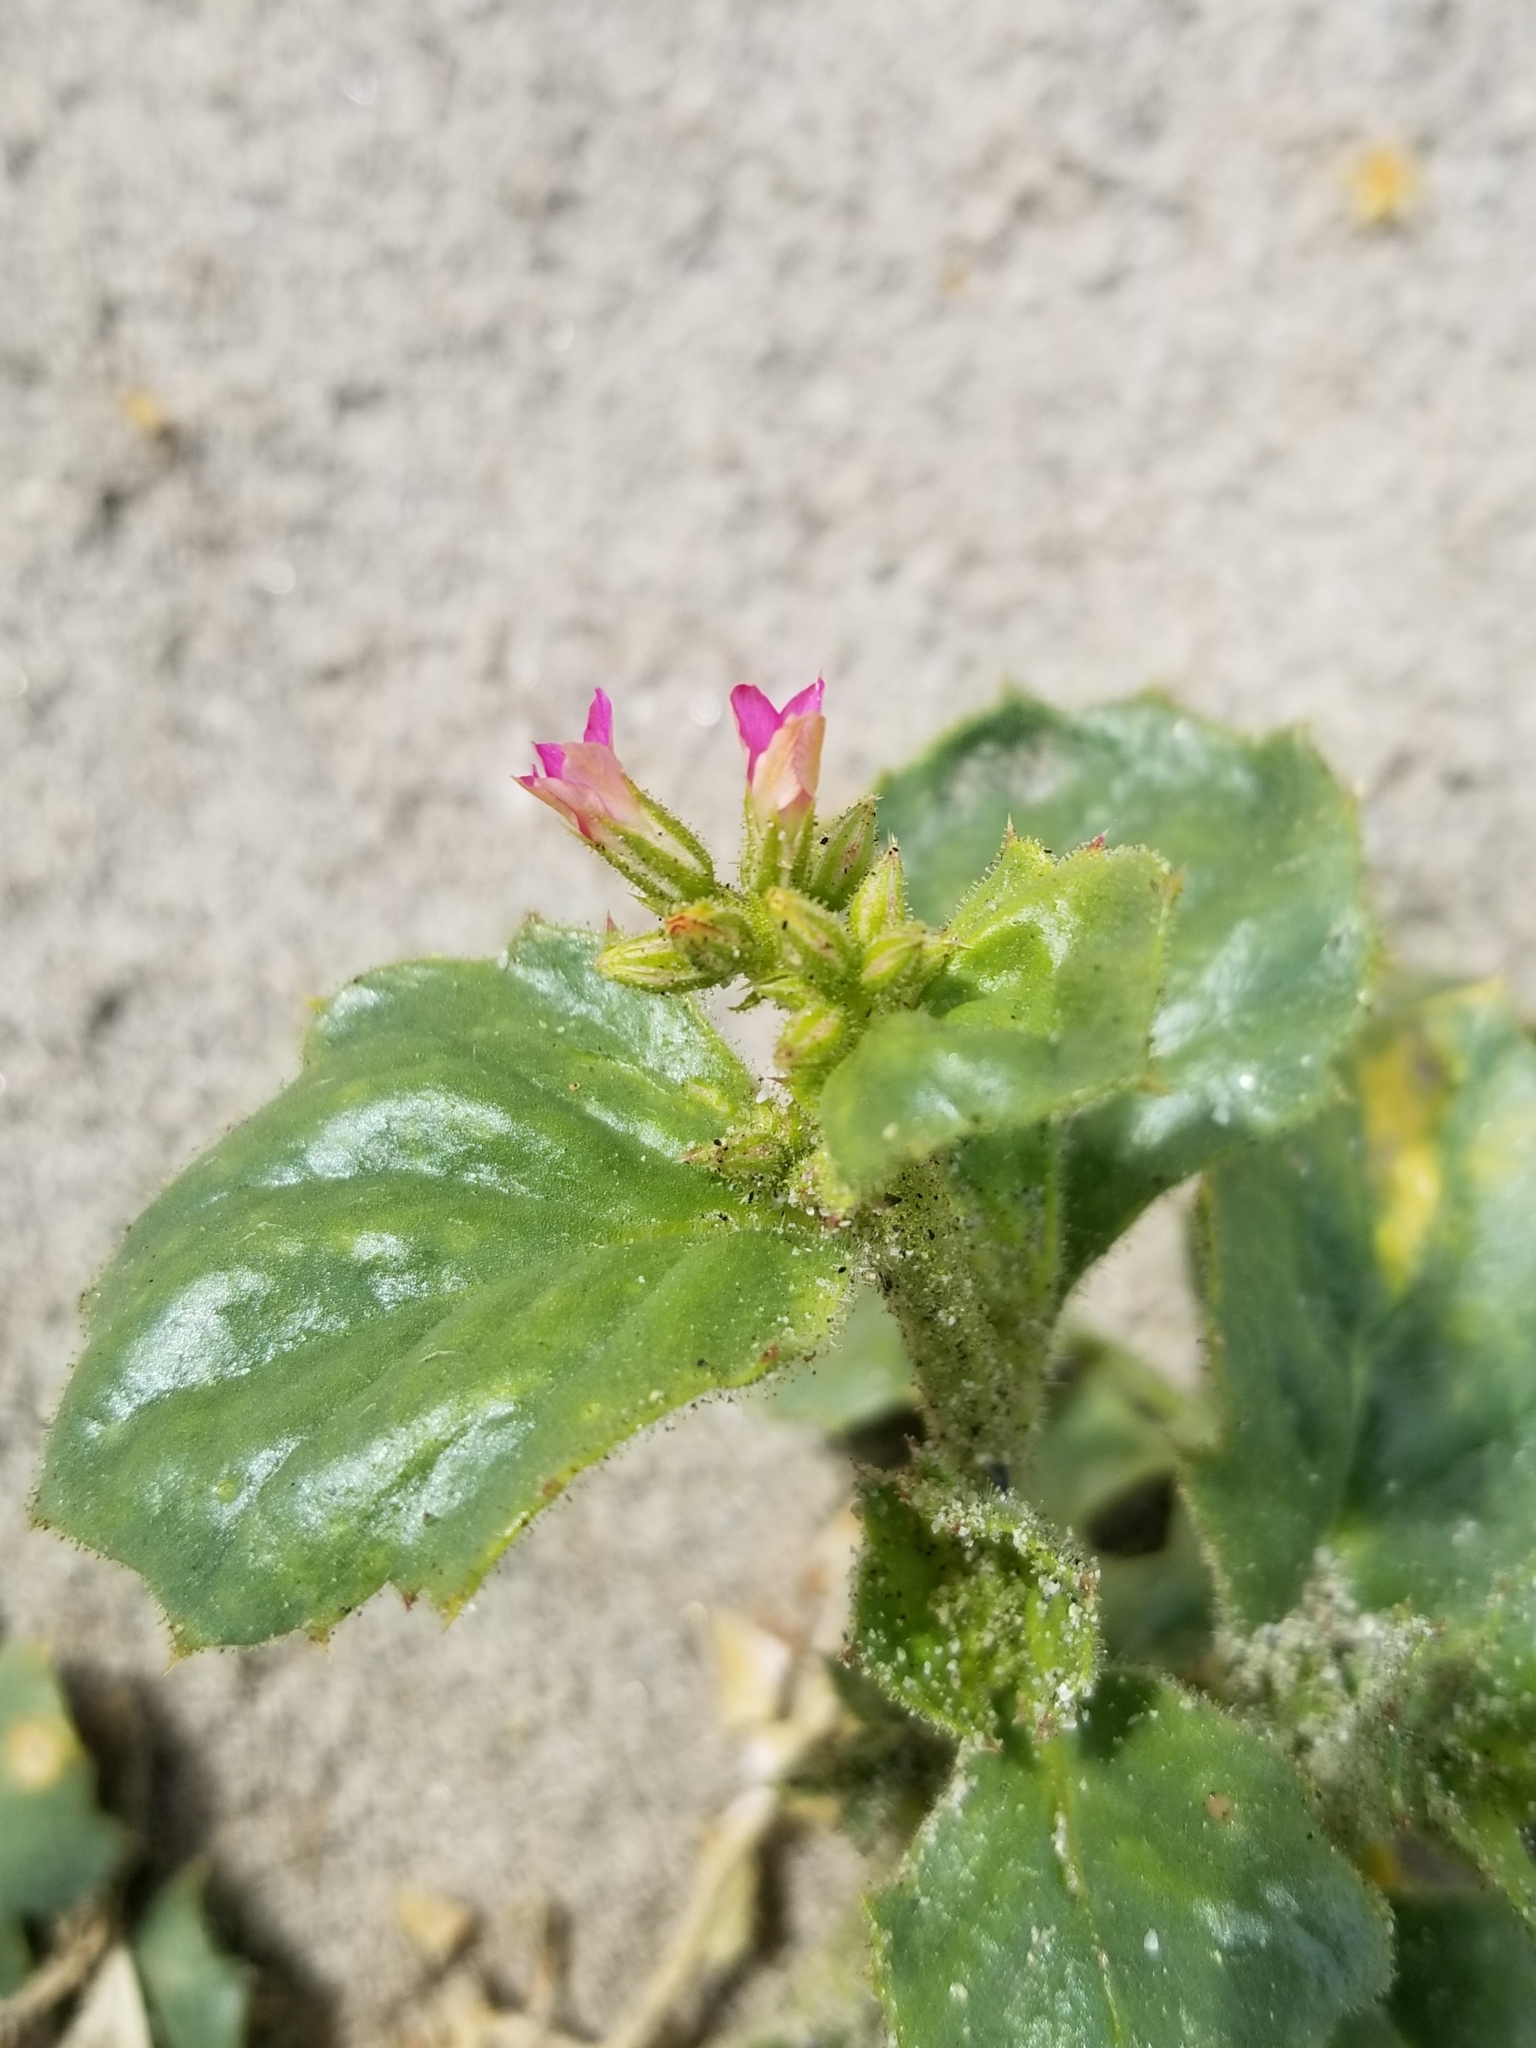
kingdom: Plantae
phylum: Tracheophyta
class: Magnoliopsida
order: Ericales
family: Polemoniaceae
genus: Aliciella
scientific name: Aliciella latifolia
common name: Broad-leaf gilia
